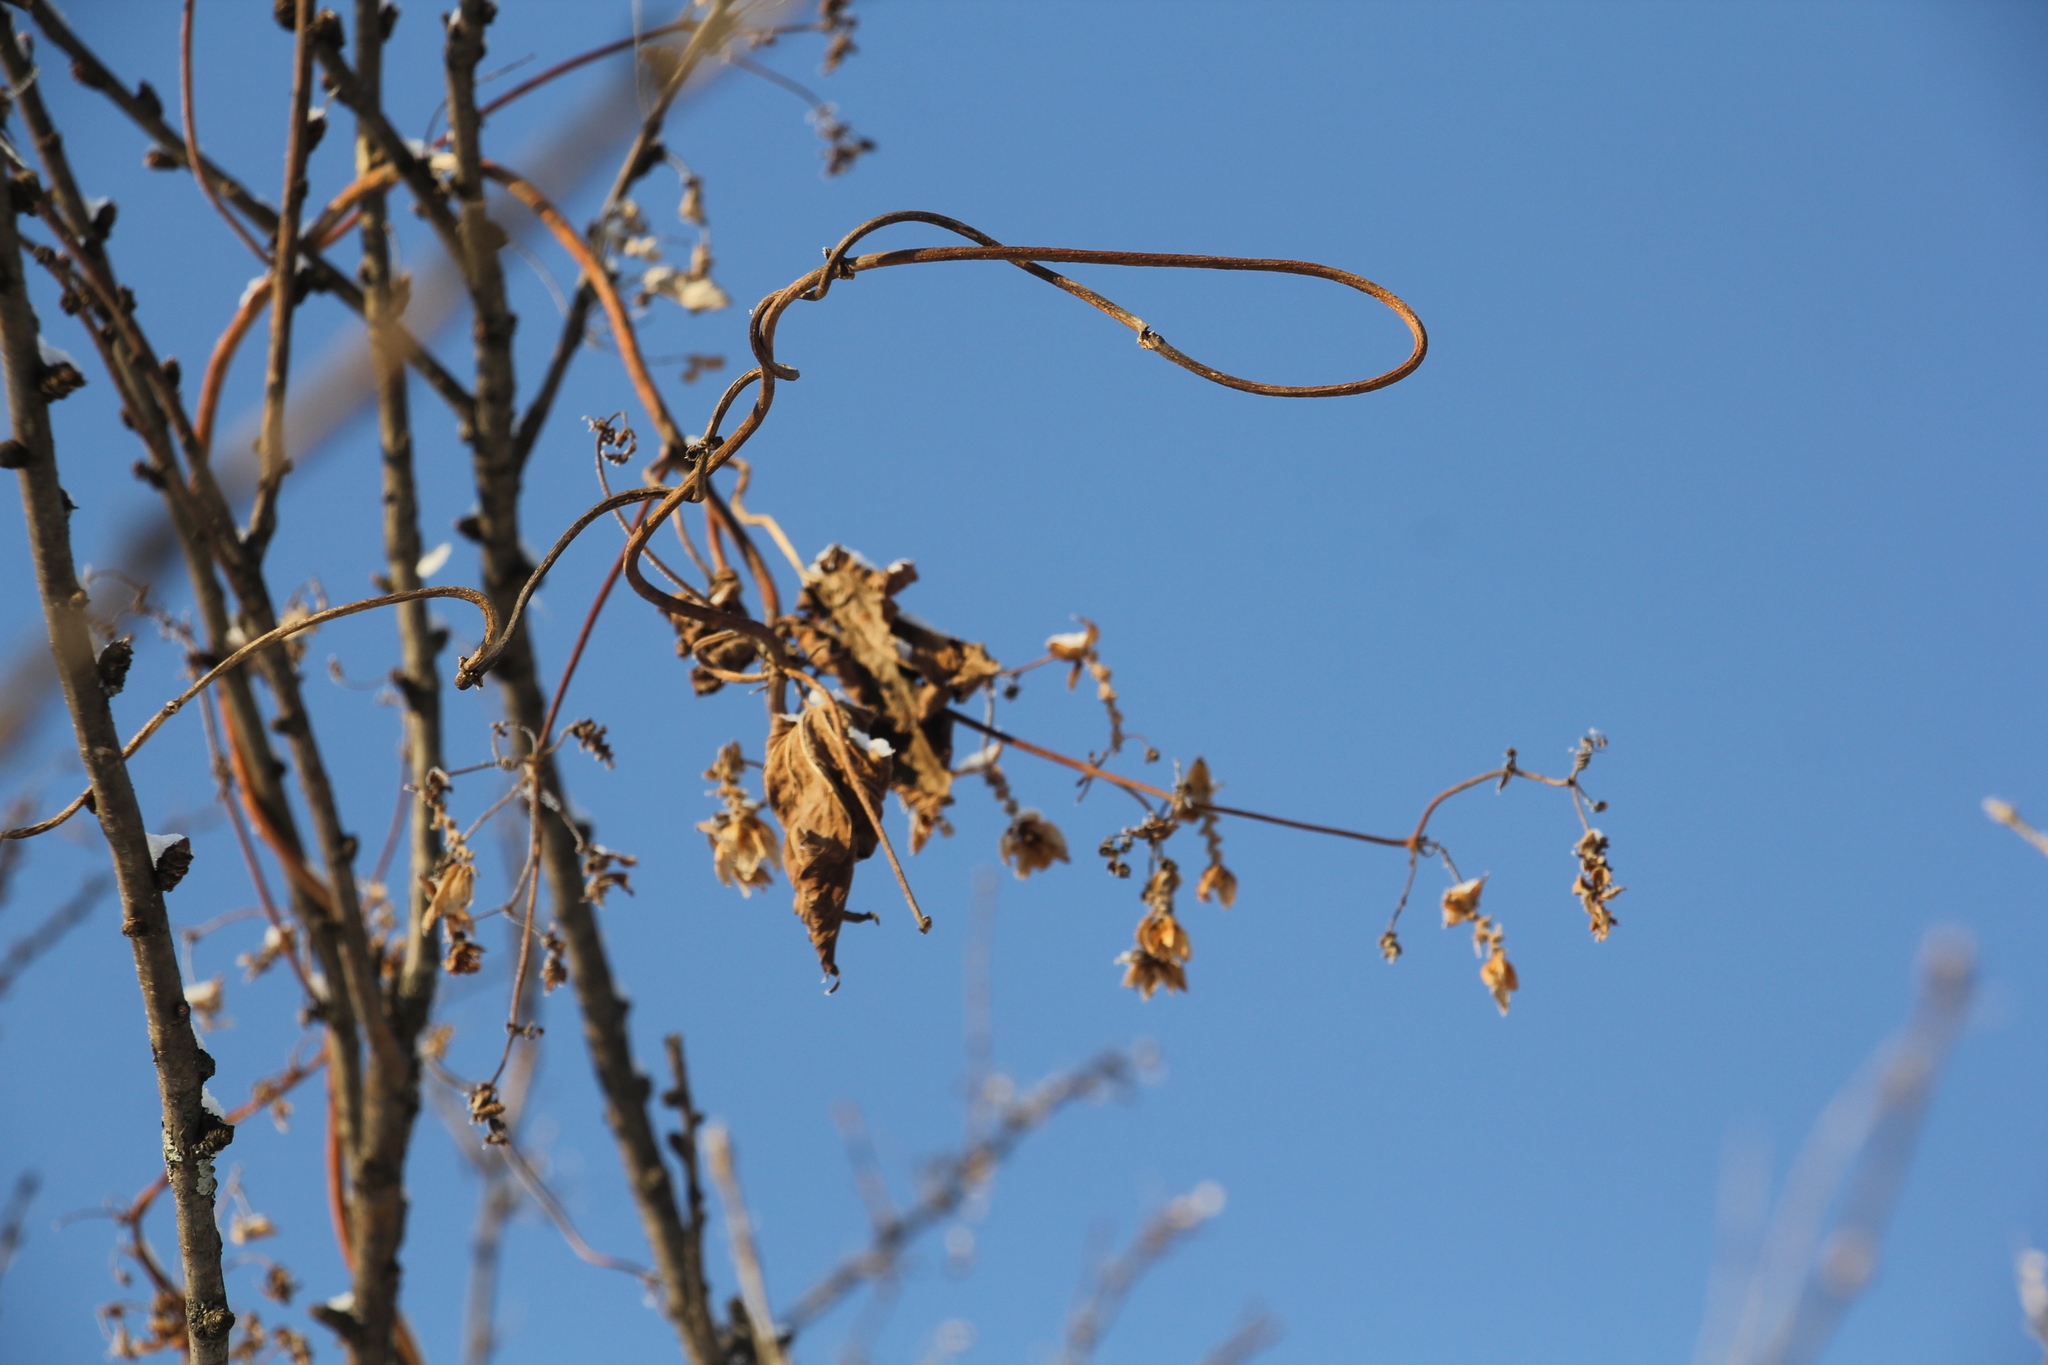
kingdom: Plantae
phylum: Tracheophyta
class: Magnoliopsida
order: Rosales
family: Cannabaceae
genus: Humulus
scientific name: Humulus lupulus
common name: Hop
